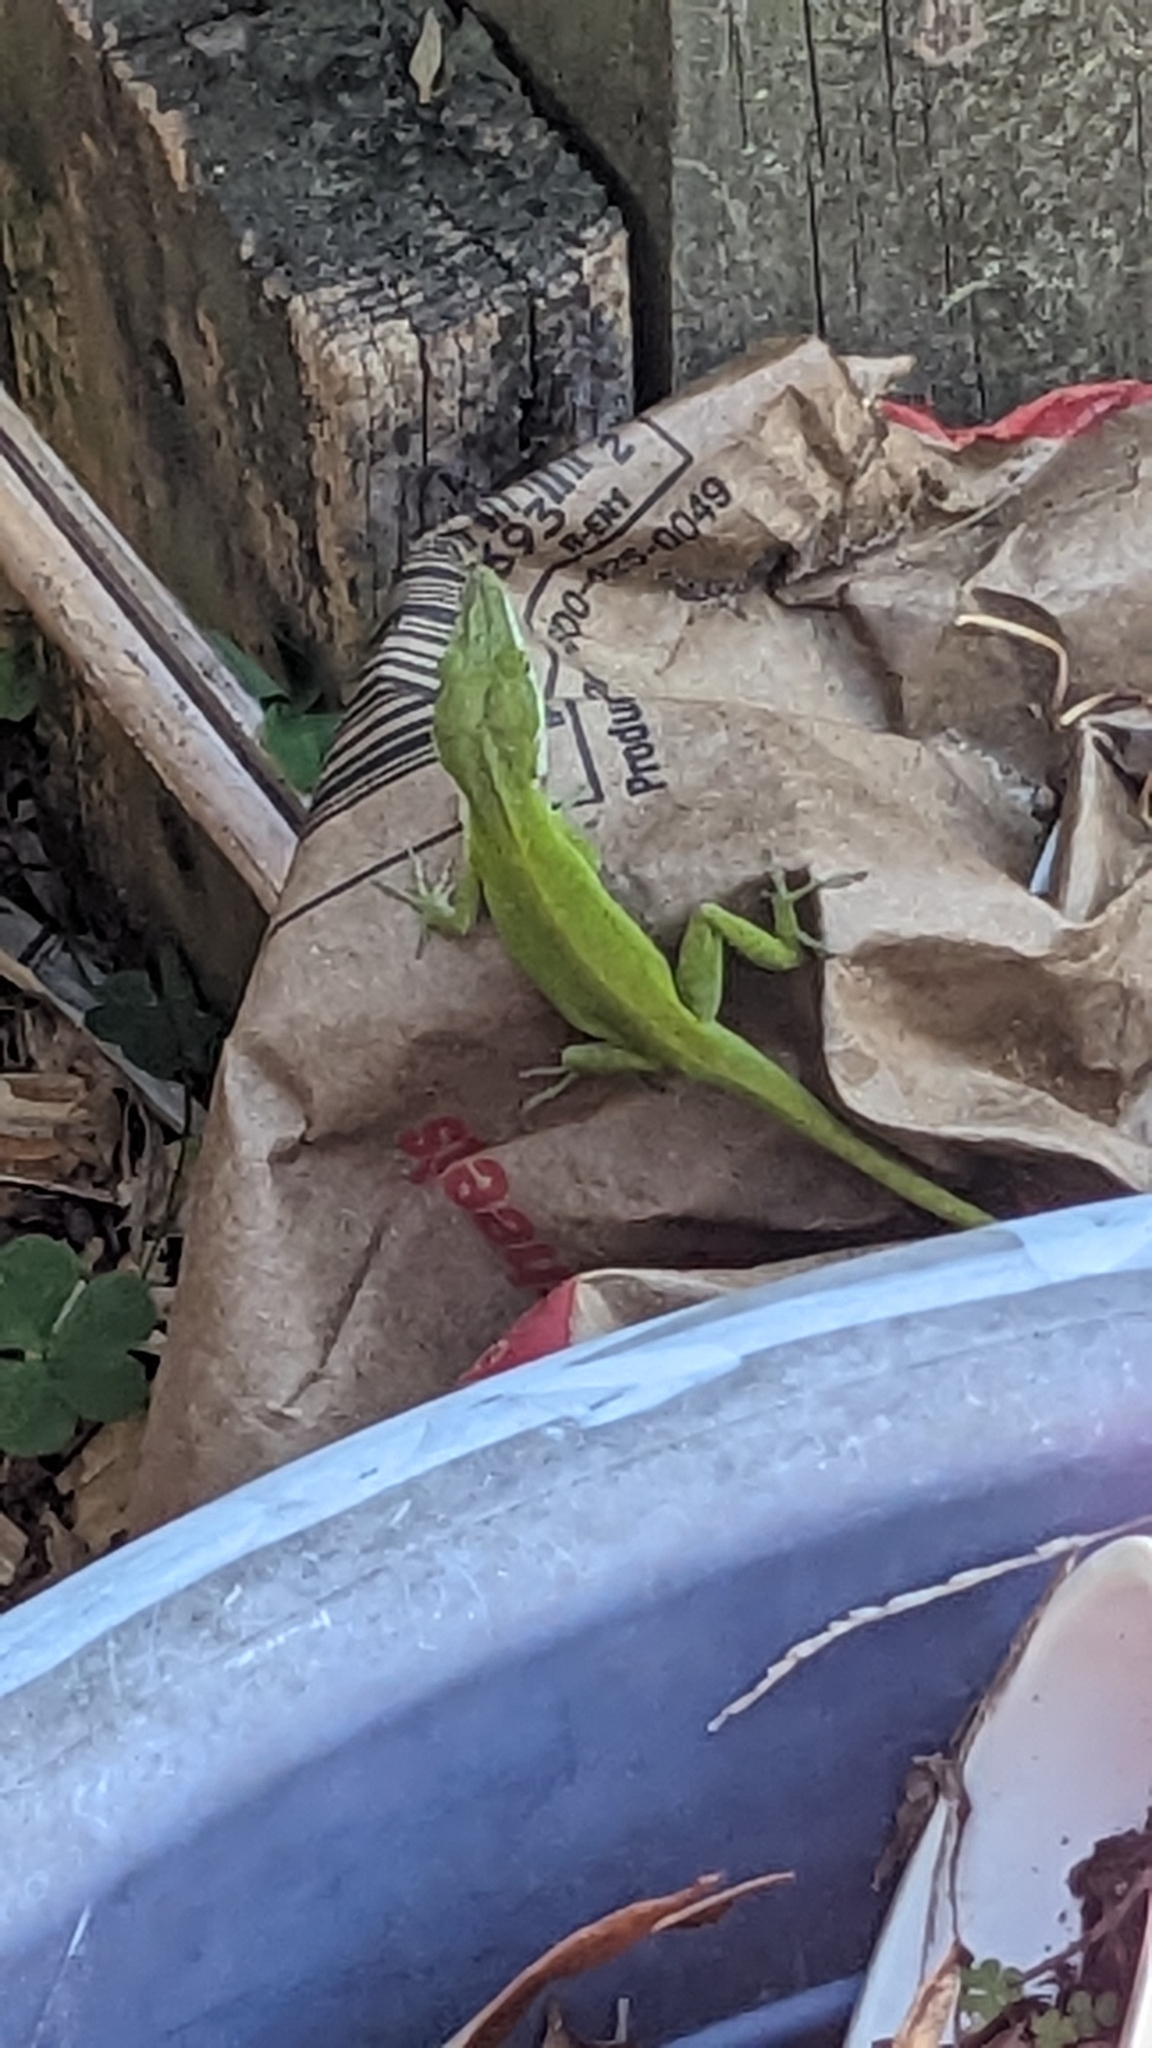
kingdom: Animalia
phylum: Chordata
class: Squamata
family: Dactyloidae
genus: Anolis
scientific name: Anolis carolinensis
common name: Green anole
